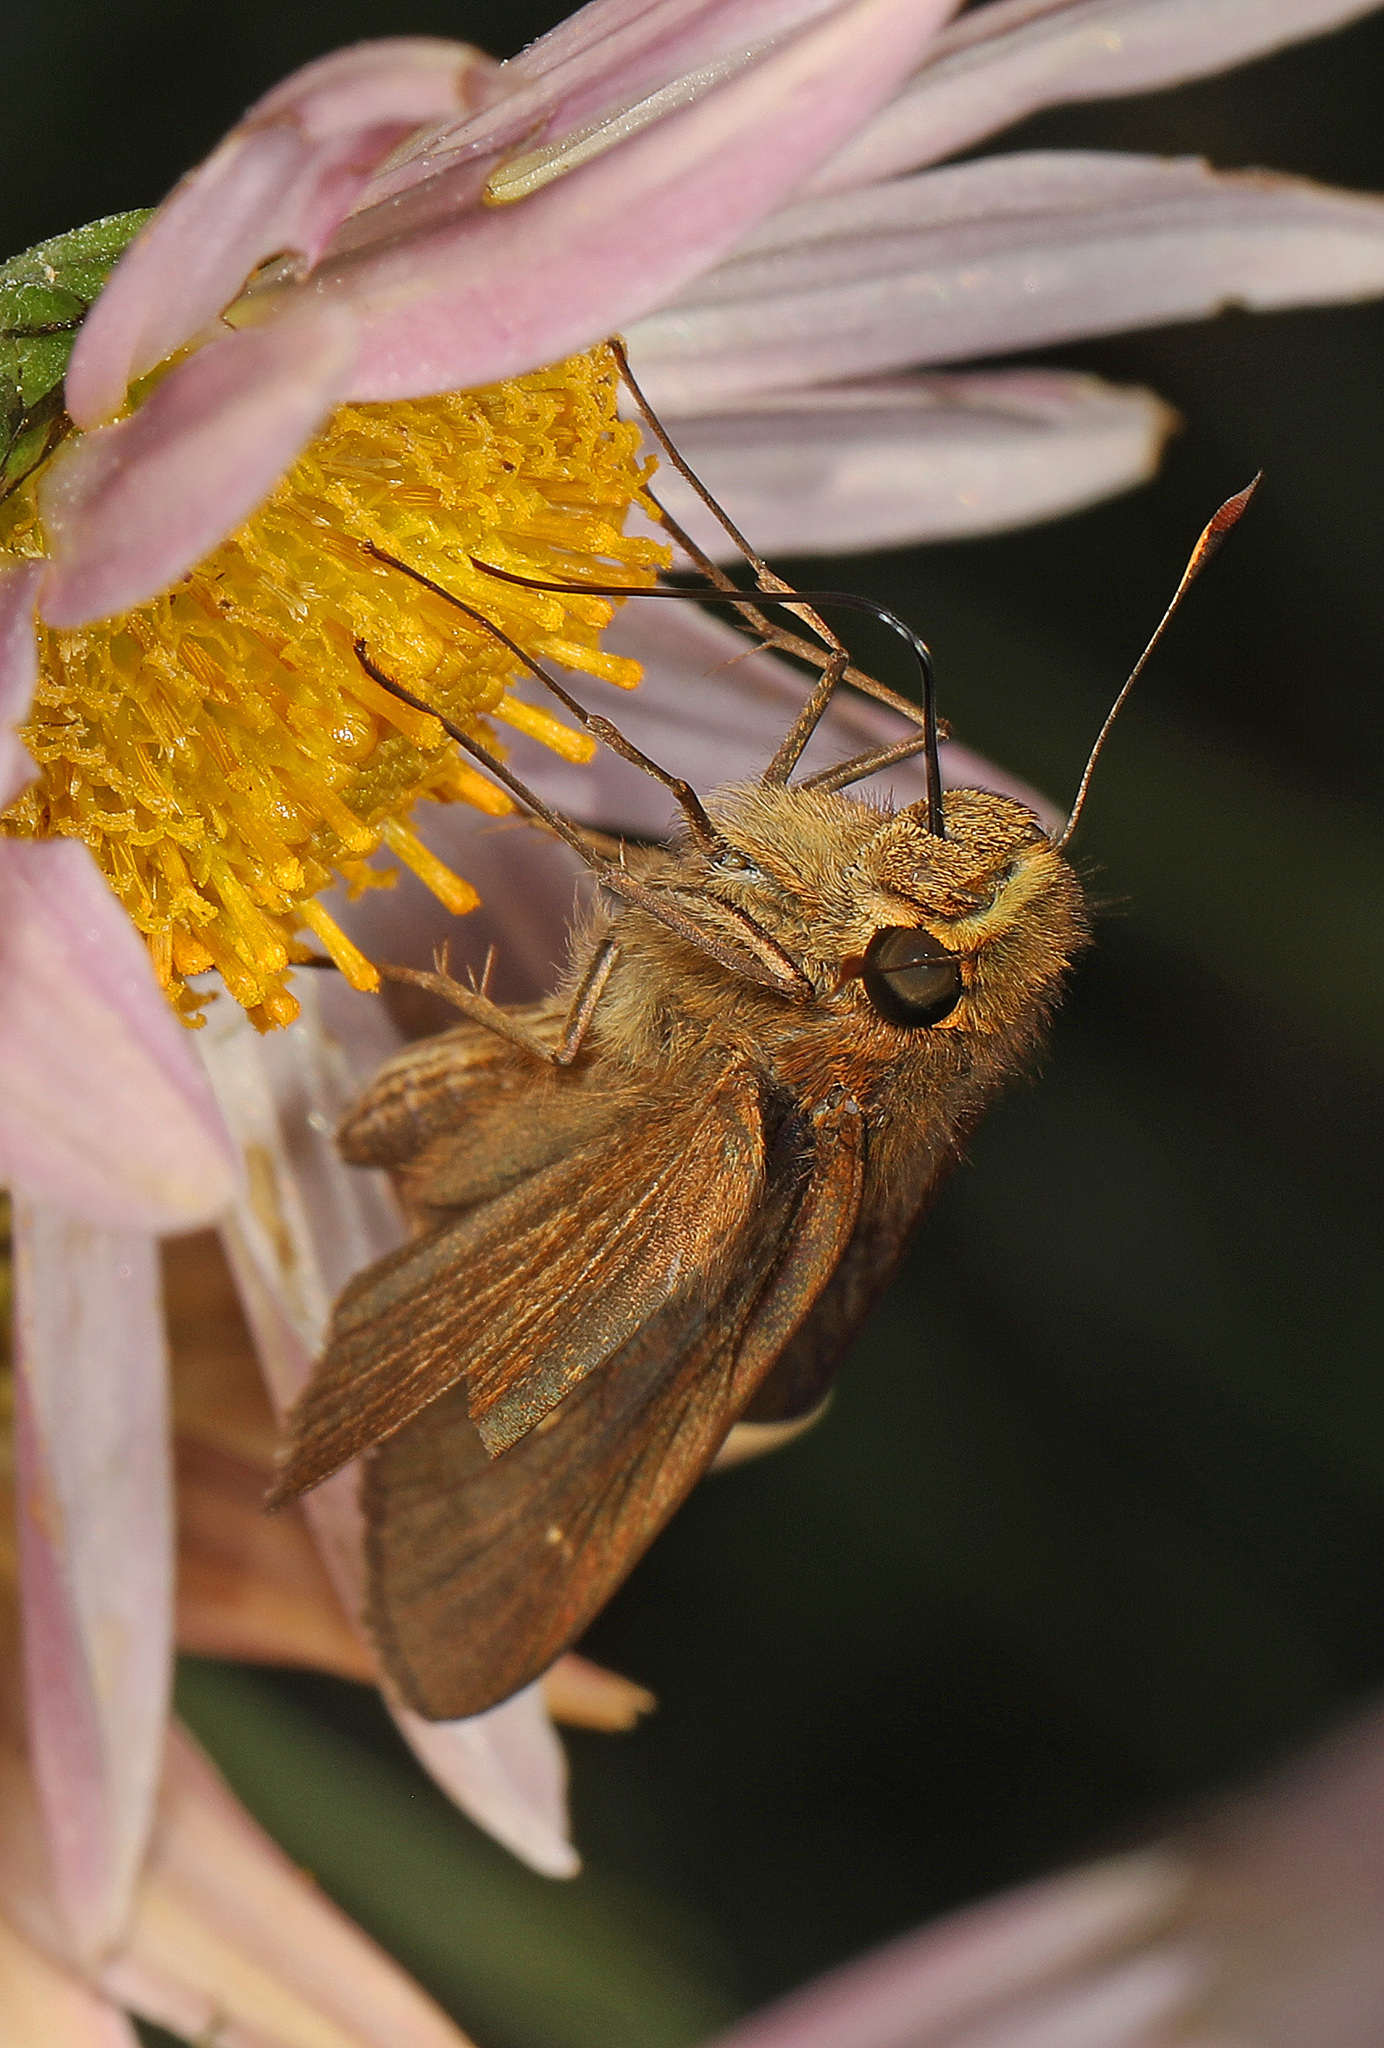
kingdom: Animalia
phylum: Arthropoda
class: Insecta
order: Lepidoptera
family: Hesperiidae
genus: Panoquina
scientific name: Panoquina ocola
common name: Ocola skipper
